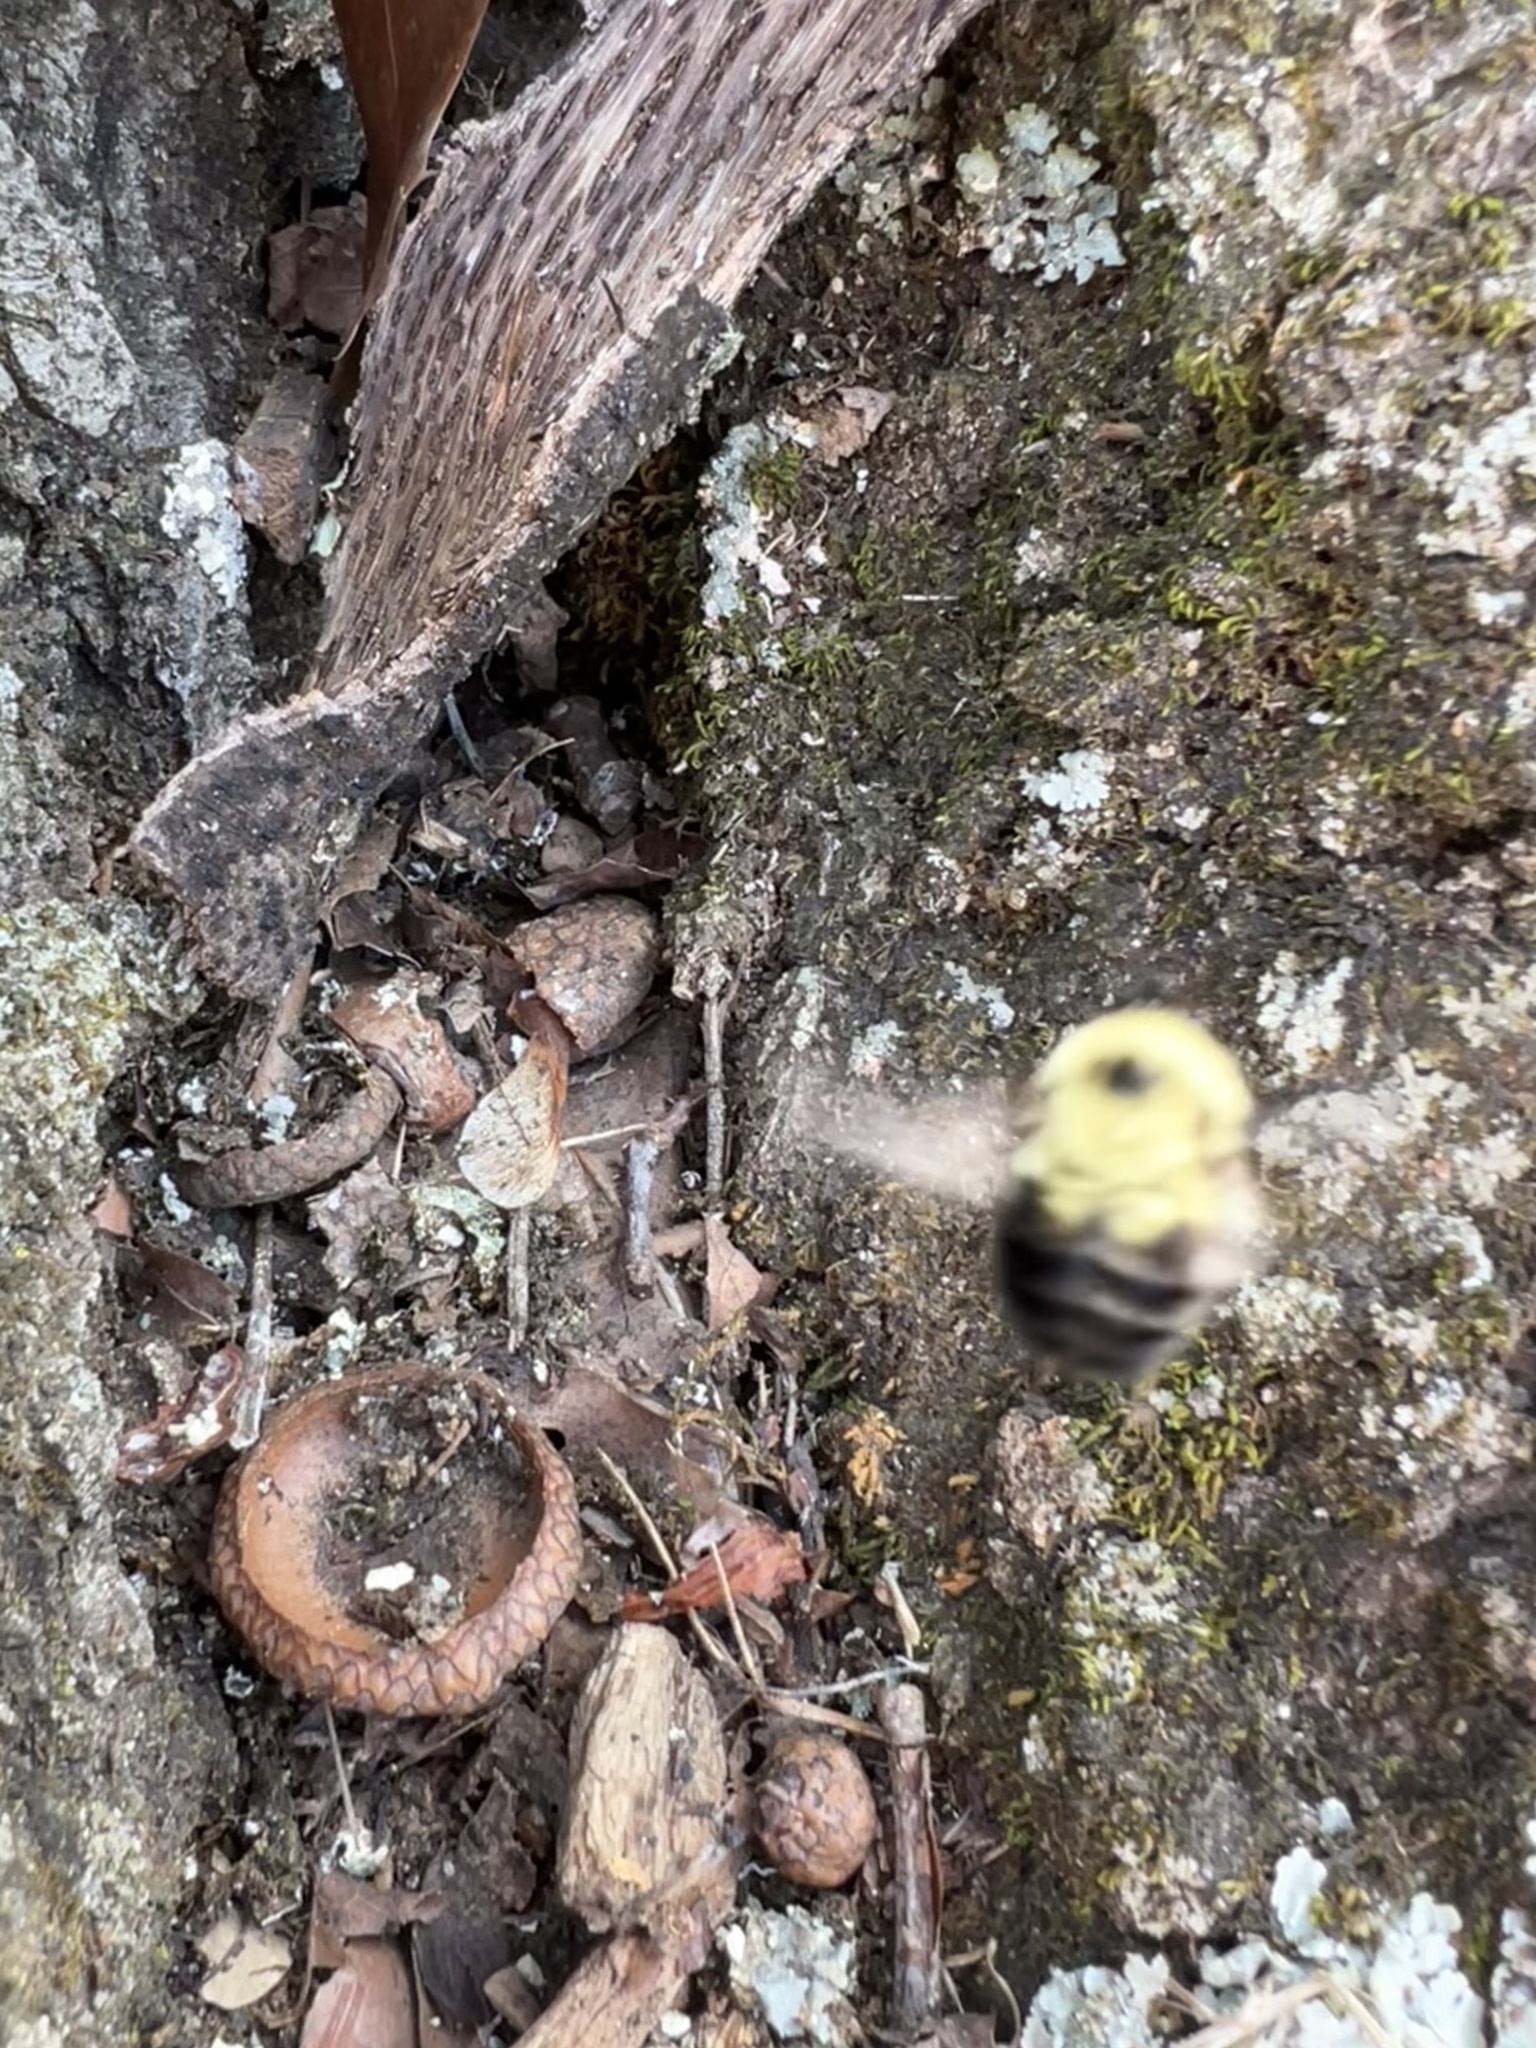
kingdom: Animalia
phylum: Arthropoda
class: Insecta
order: Hymenoptera
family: Apidae
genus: Bombus
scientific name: Bombus bimaculatus
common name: Two-spotted bumble bee
